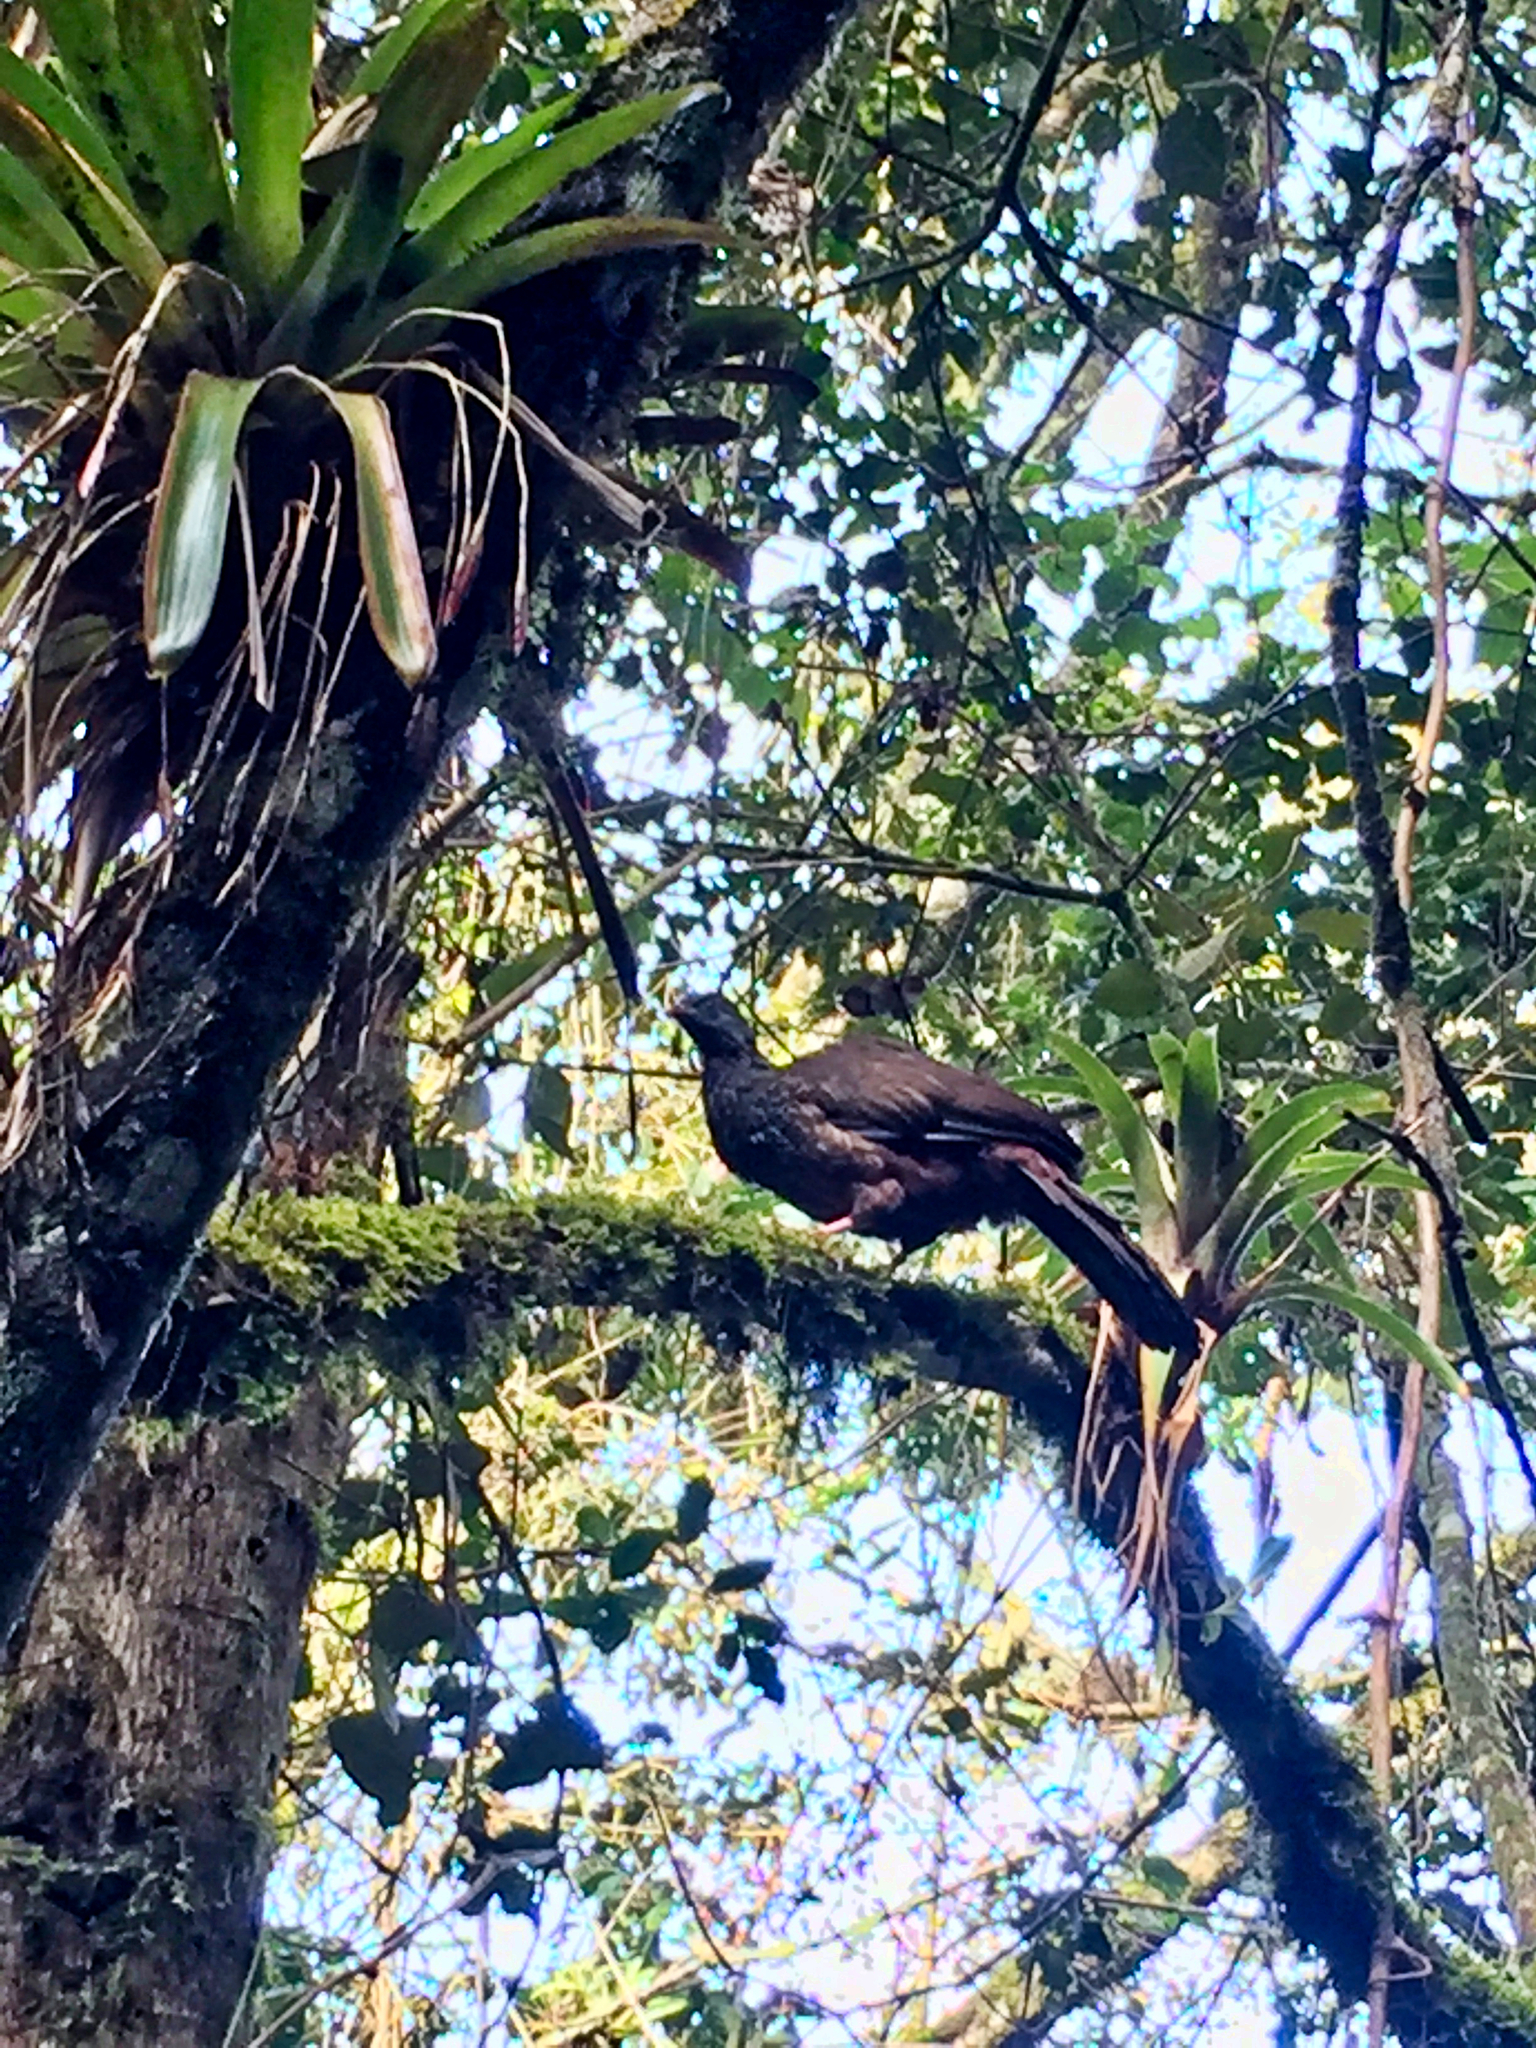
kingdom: Animalia
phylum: Chordata
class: Aves
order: Galliformes
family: Cracidae
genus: Penelope
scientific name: Penelope montagnii
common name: Andean guan
